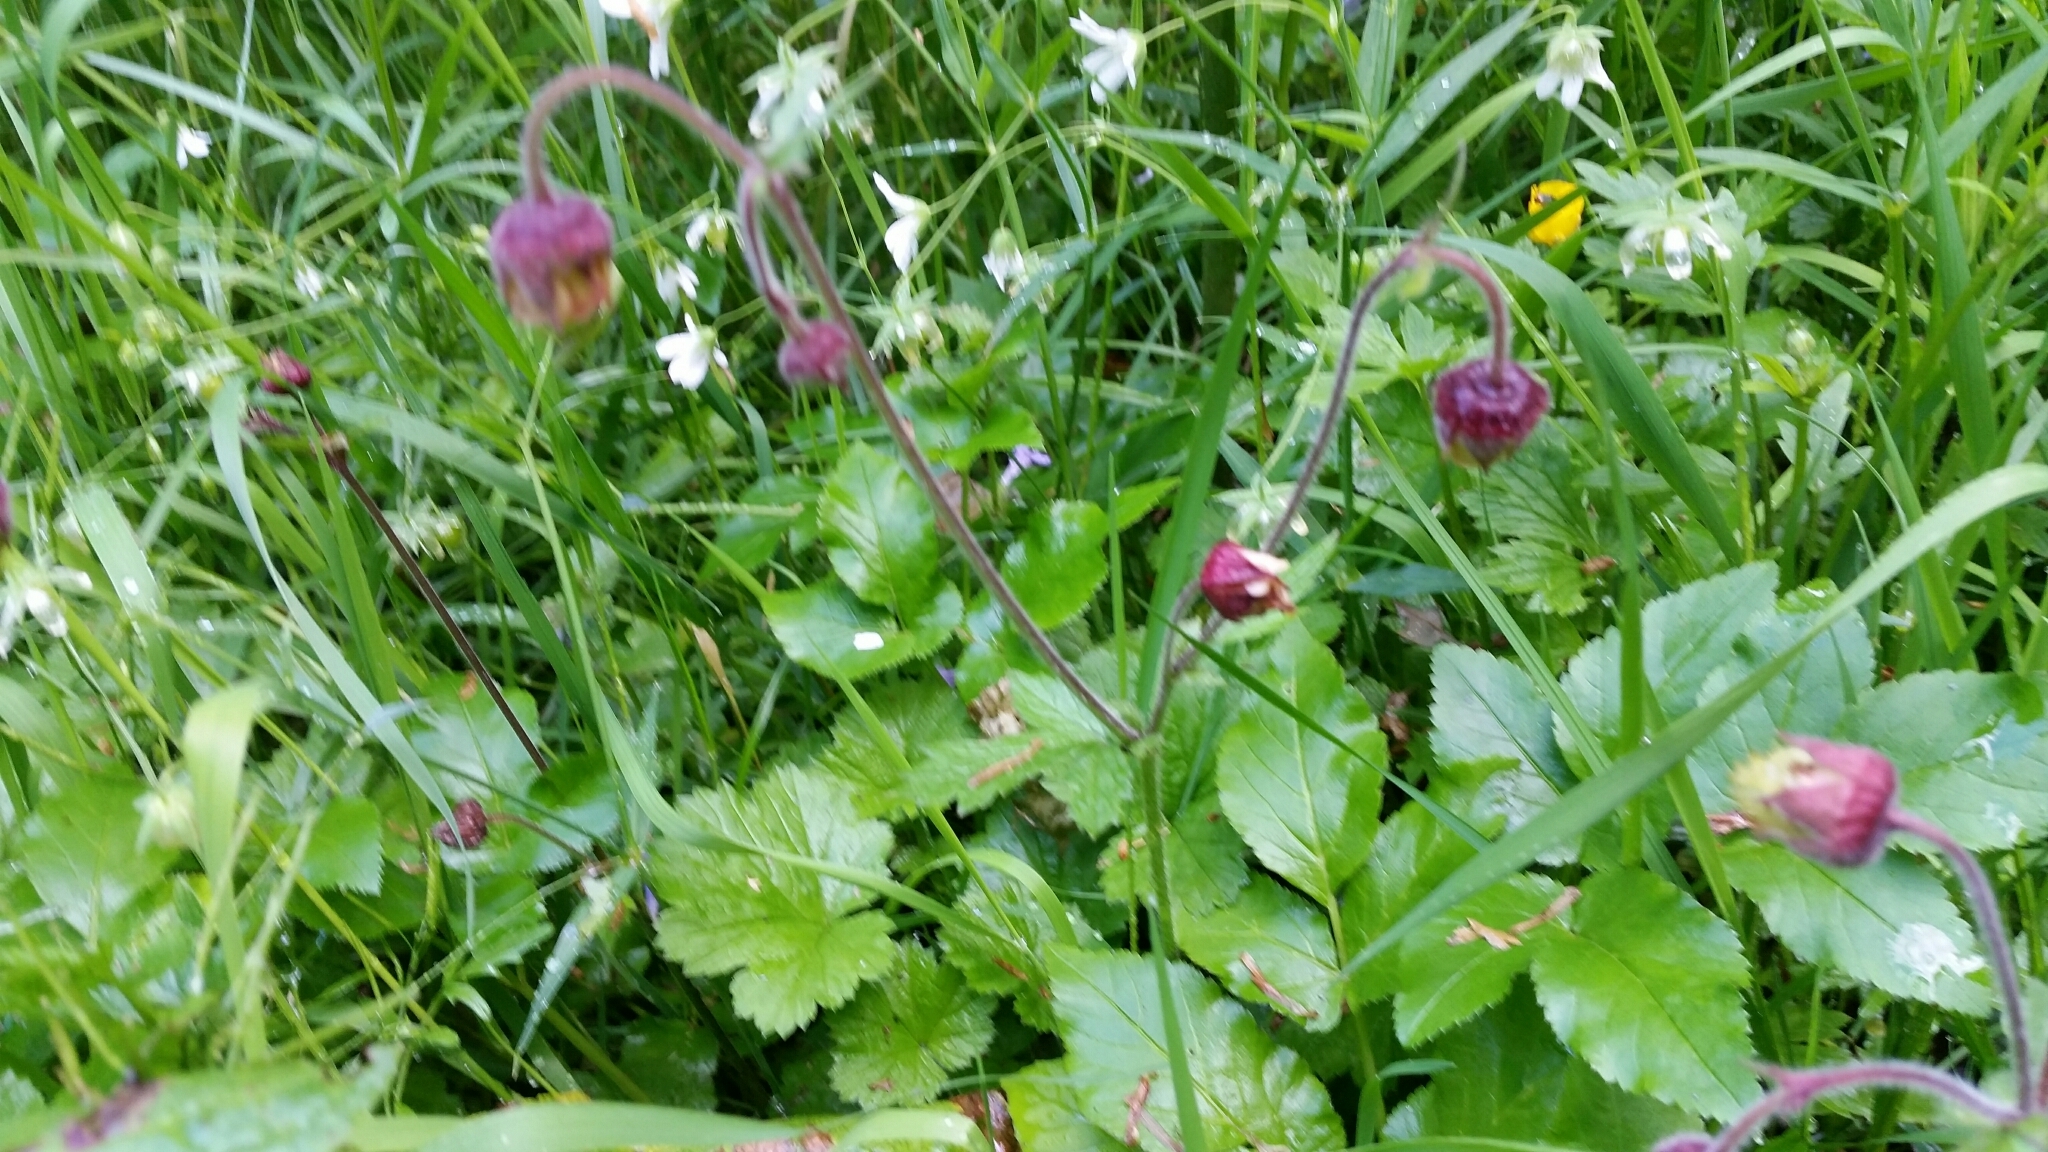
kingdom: Plantae
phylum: Tracheophyta
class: Magnoliopsida
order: Rosales
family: Rosaceae
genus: Geum
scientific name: Geum rivale
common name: Water avens
